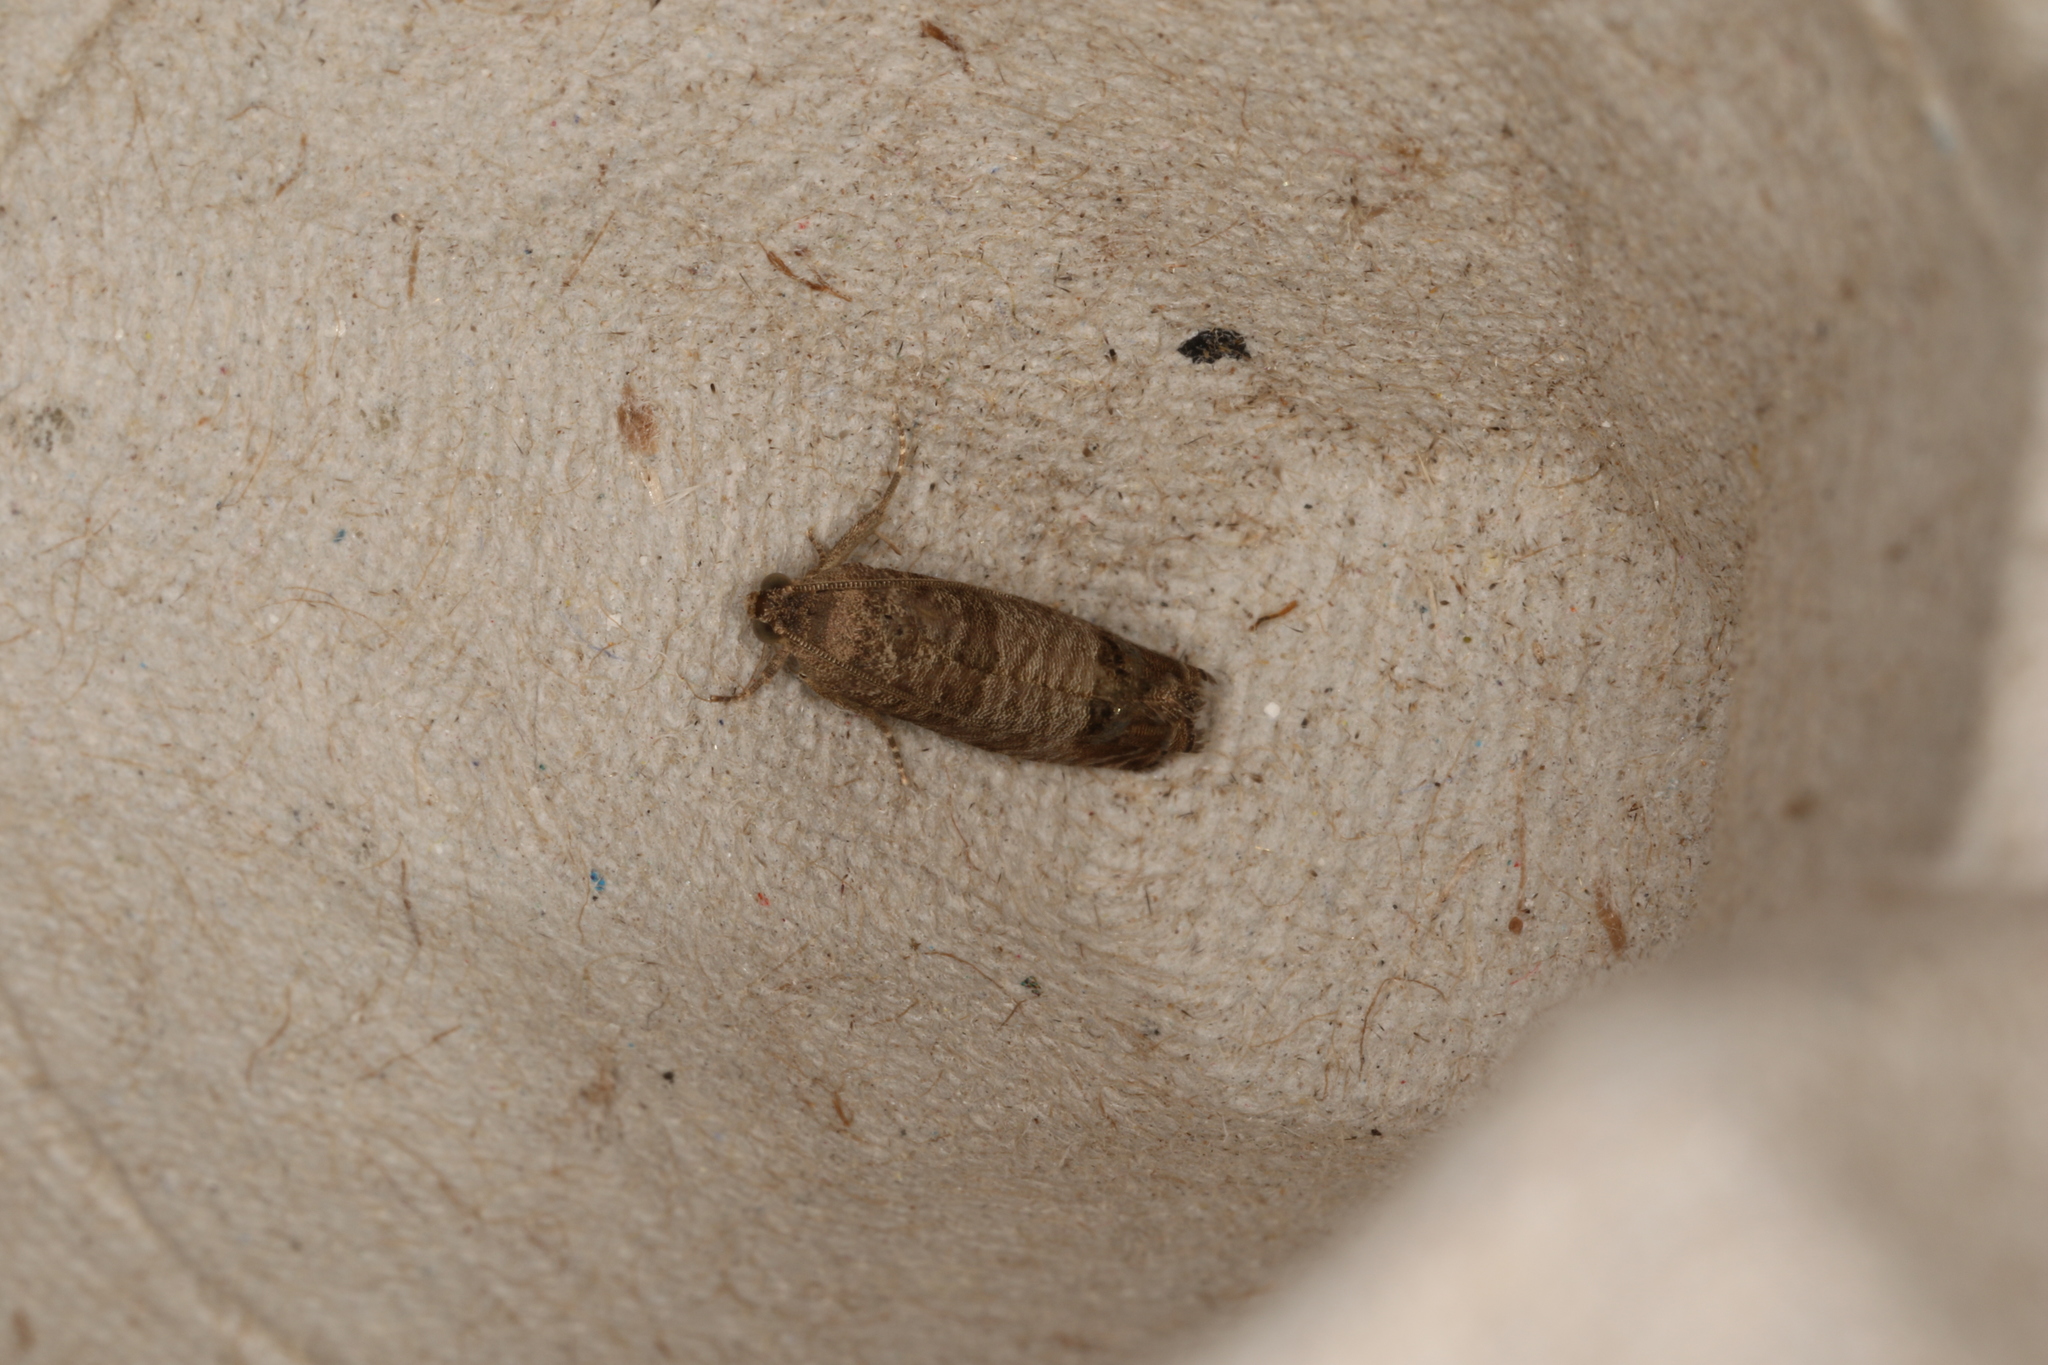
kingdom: Animalia
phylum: Arthropoda
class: Insecta
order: Lepidoptera
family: Tortricidae
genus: Cydia
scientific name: Cydia pomonella
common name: Codling moth
